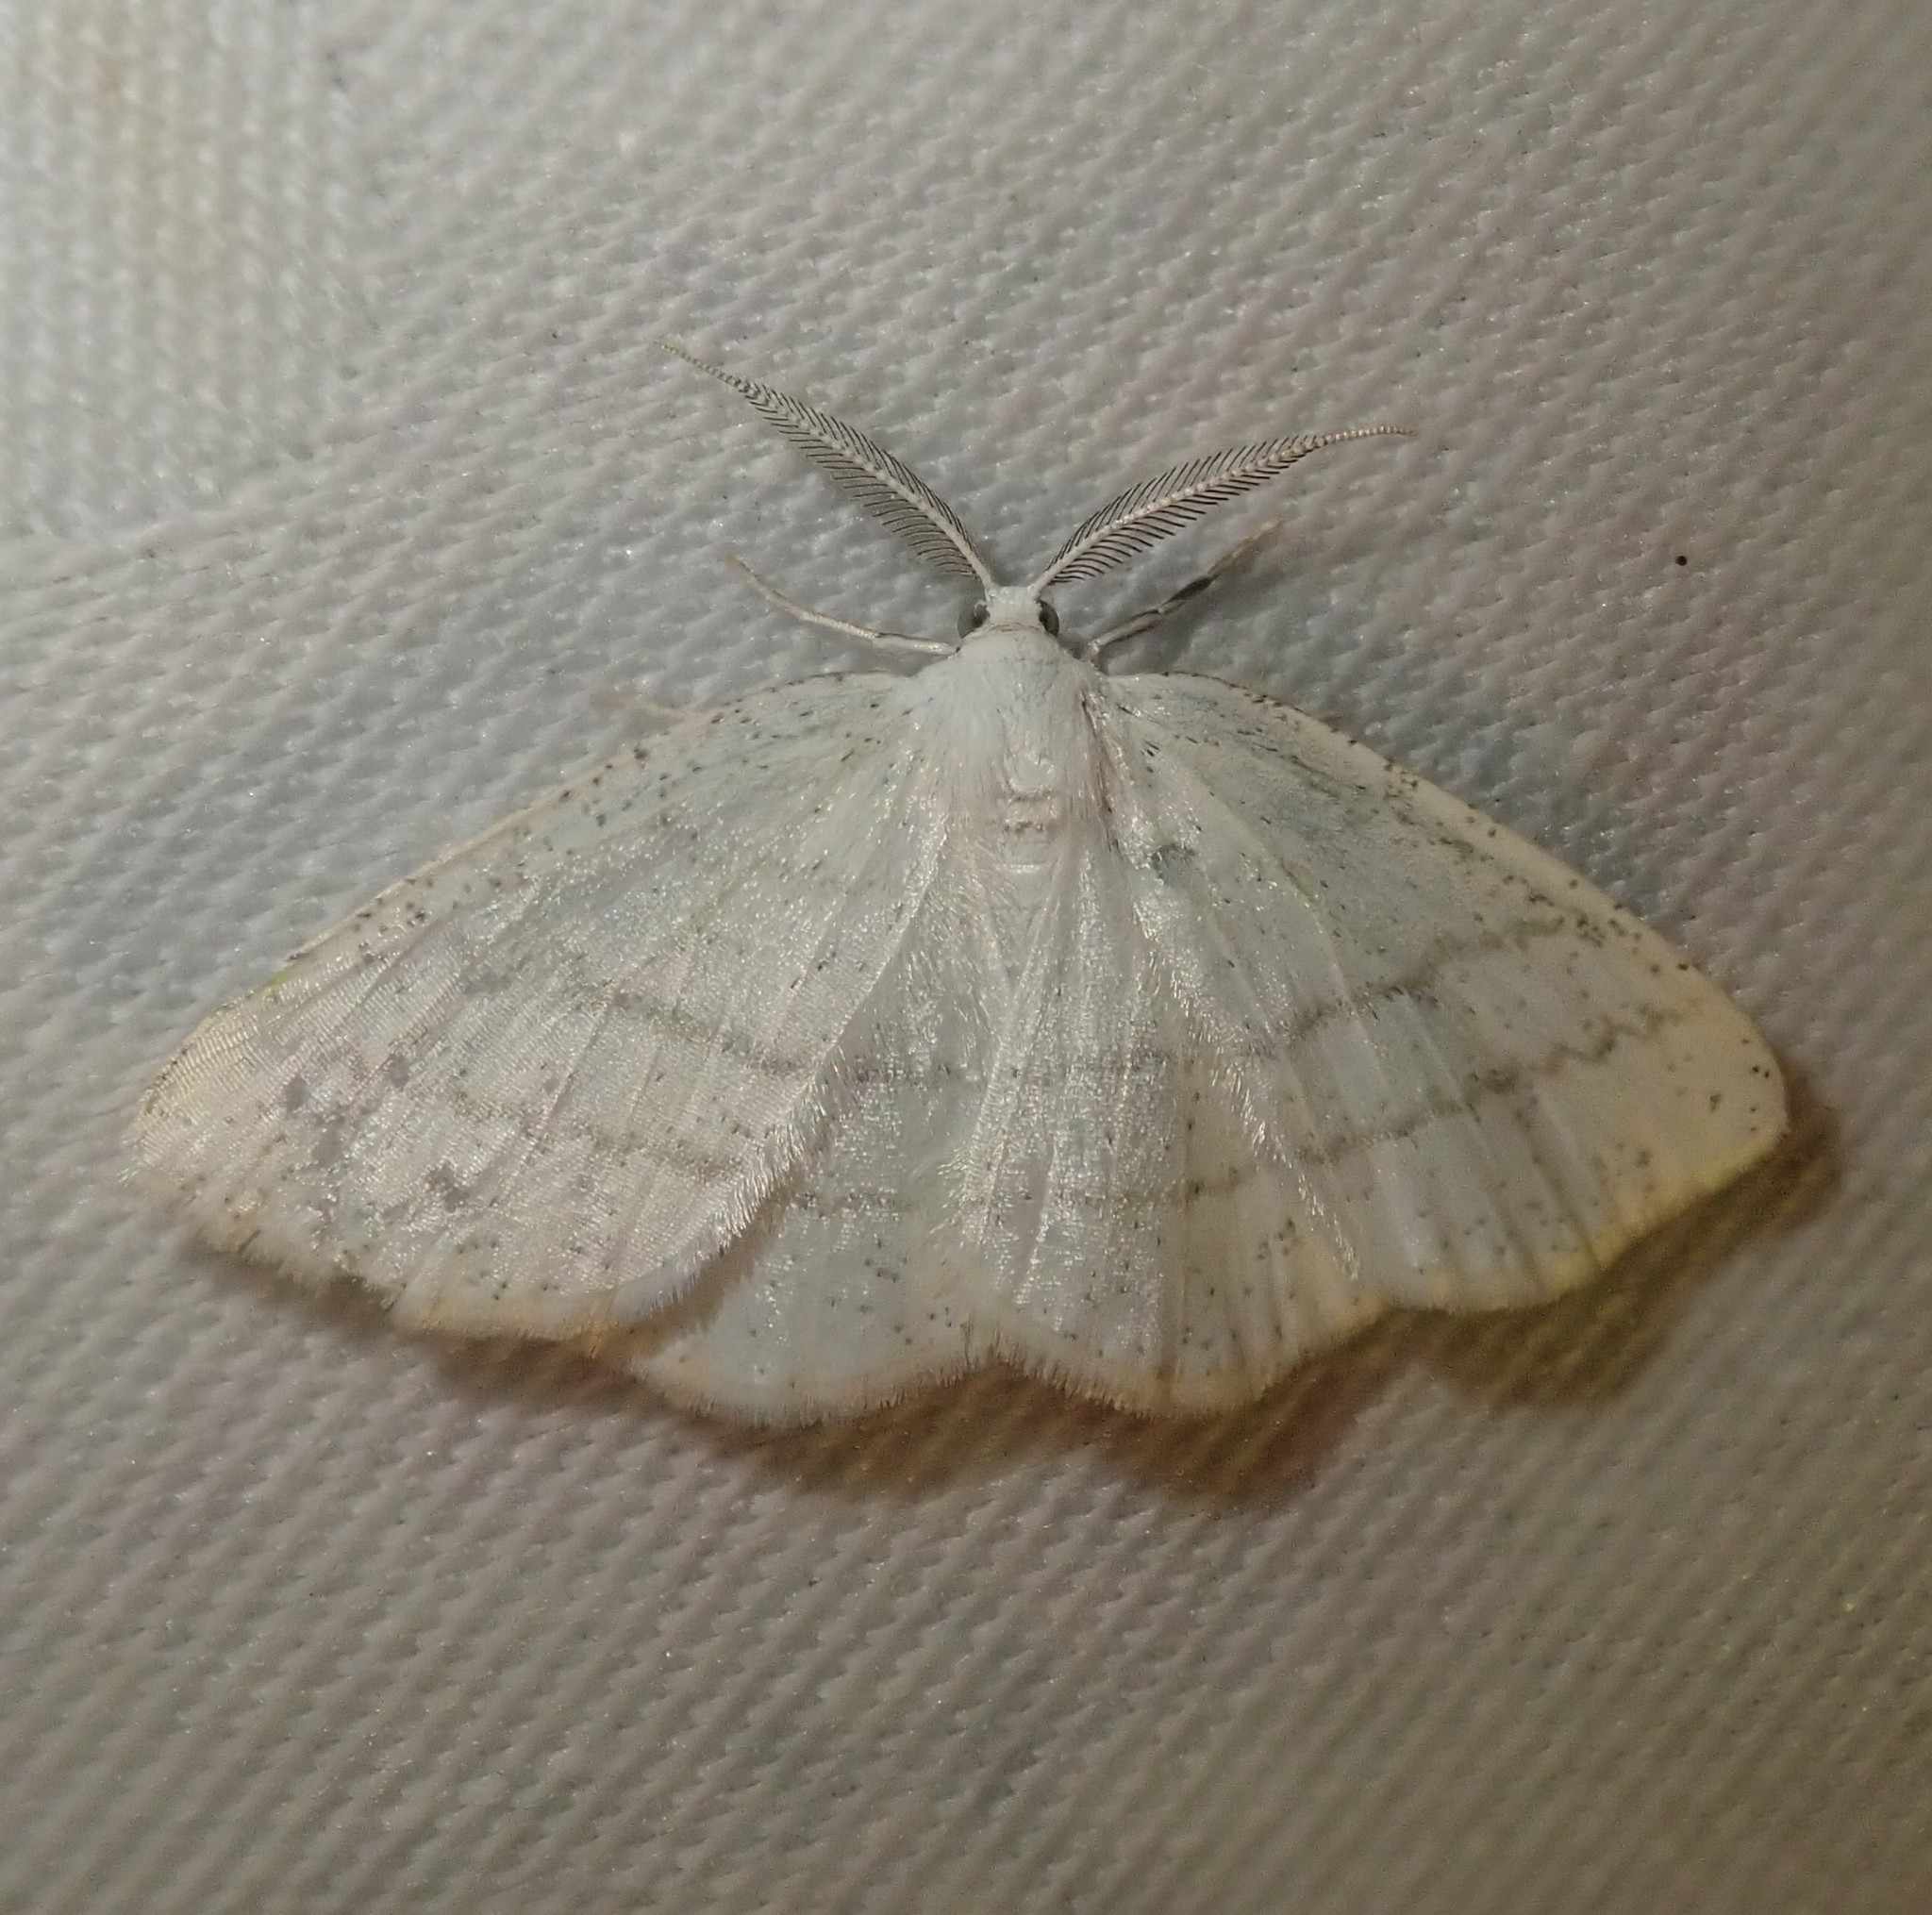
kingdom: Animalia
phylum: Arthropoda
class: Insecta
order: Lepidoptera
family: Geometridae
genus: Cabera
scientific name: Cabera pusaria
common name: Common white wave
